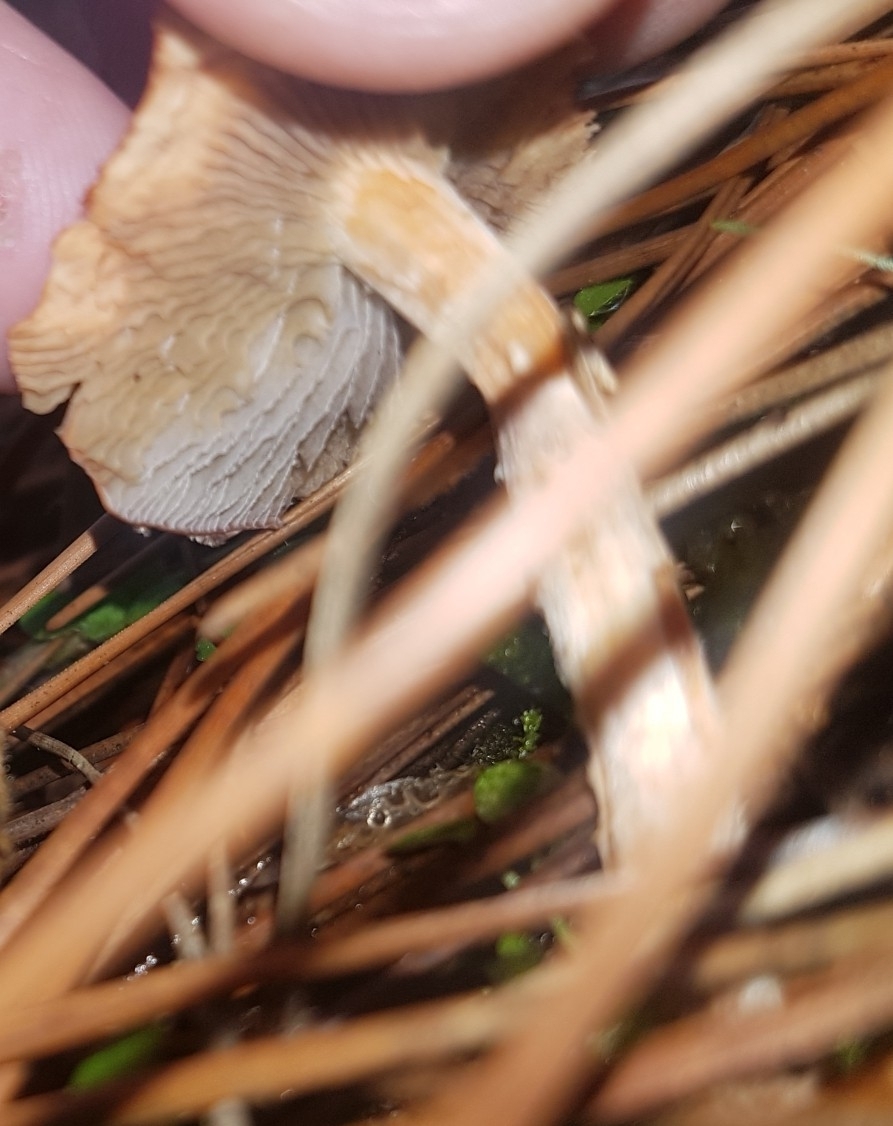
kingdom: Fungi
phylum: Basidiomycota
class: Agaricomycetes
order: Agaricales
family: Strophariaceae
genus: Leratiomyces
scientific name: Leratiomyces ceres
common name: Redlead roundhead
